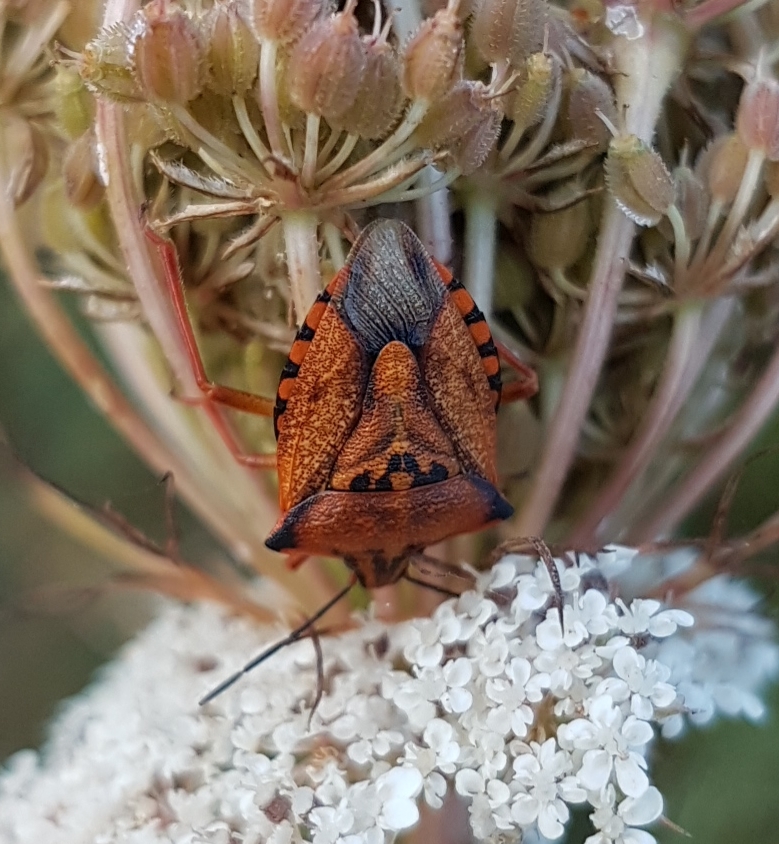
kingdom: Animalia
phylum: Arthropoda
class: Insecta
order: Hemiptera
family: Pentatomidae
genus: Carpocoris
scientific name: Carpocoris mediterraneus
